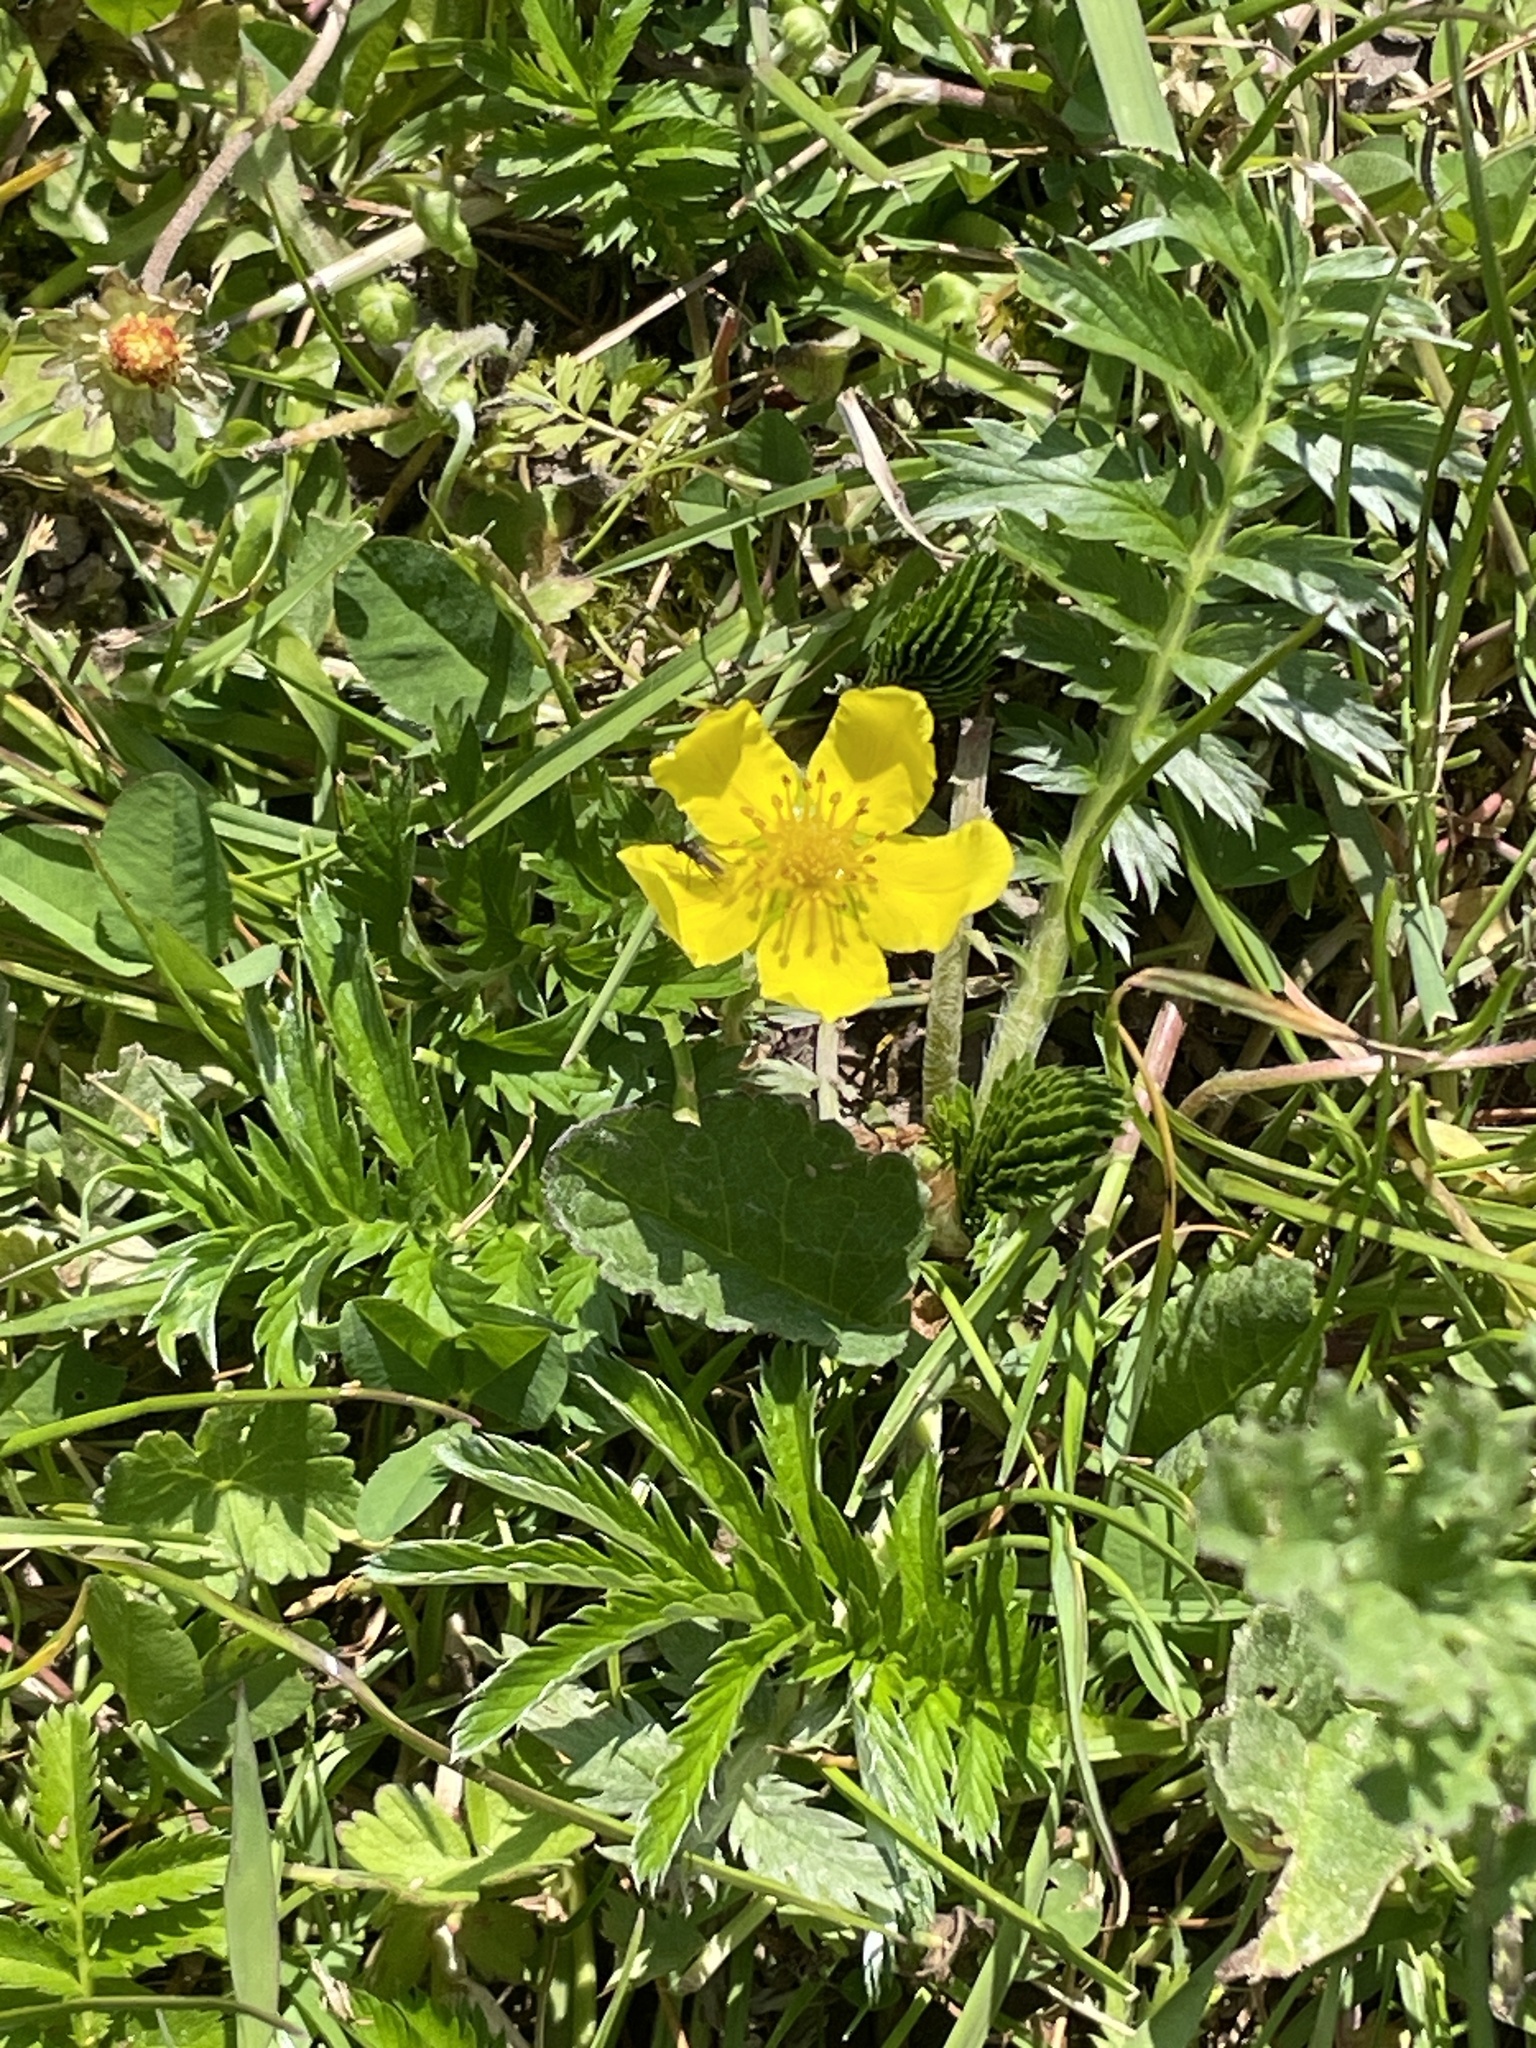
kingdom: Plantae
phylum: Tracheophyta
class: Magnoliopsida
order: Rosales
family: Rosaceae
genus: Argentina
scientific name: Argentina anserina
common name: Common silverweed
